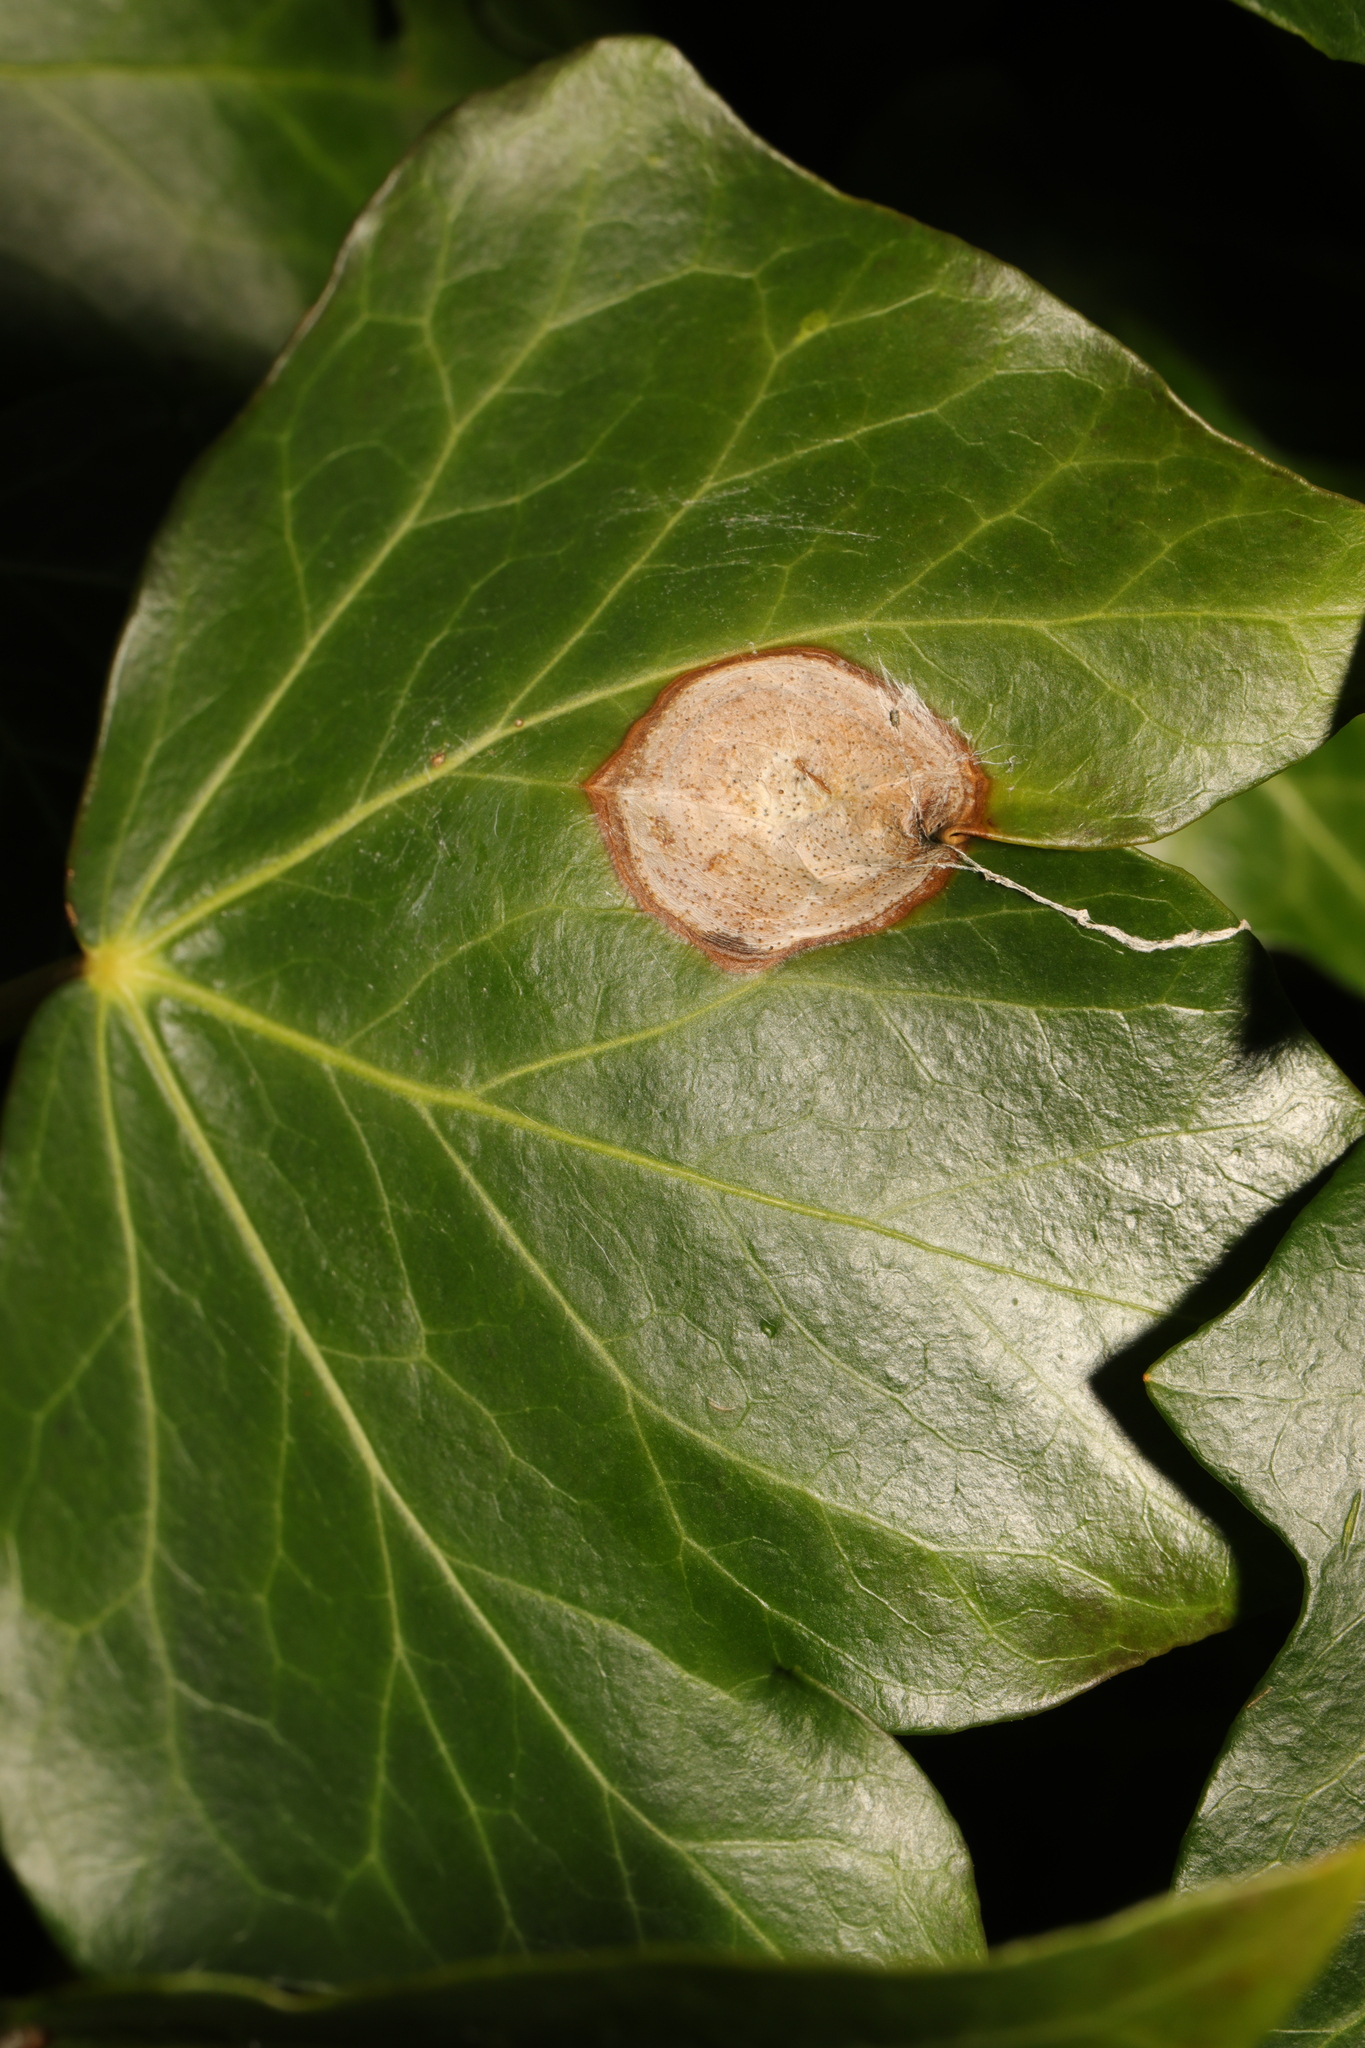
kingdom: Plantae
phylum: Tracheophyta
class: Magnoliopsida
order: Apiales
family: Araliaceae
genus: Hedera
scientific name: Hedera helix
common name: Ivy
